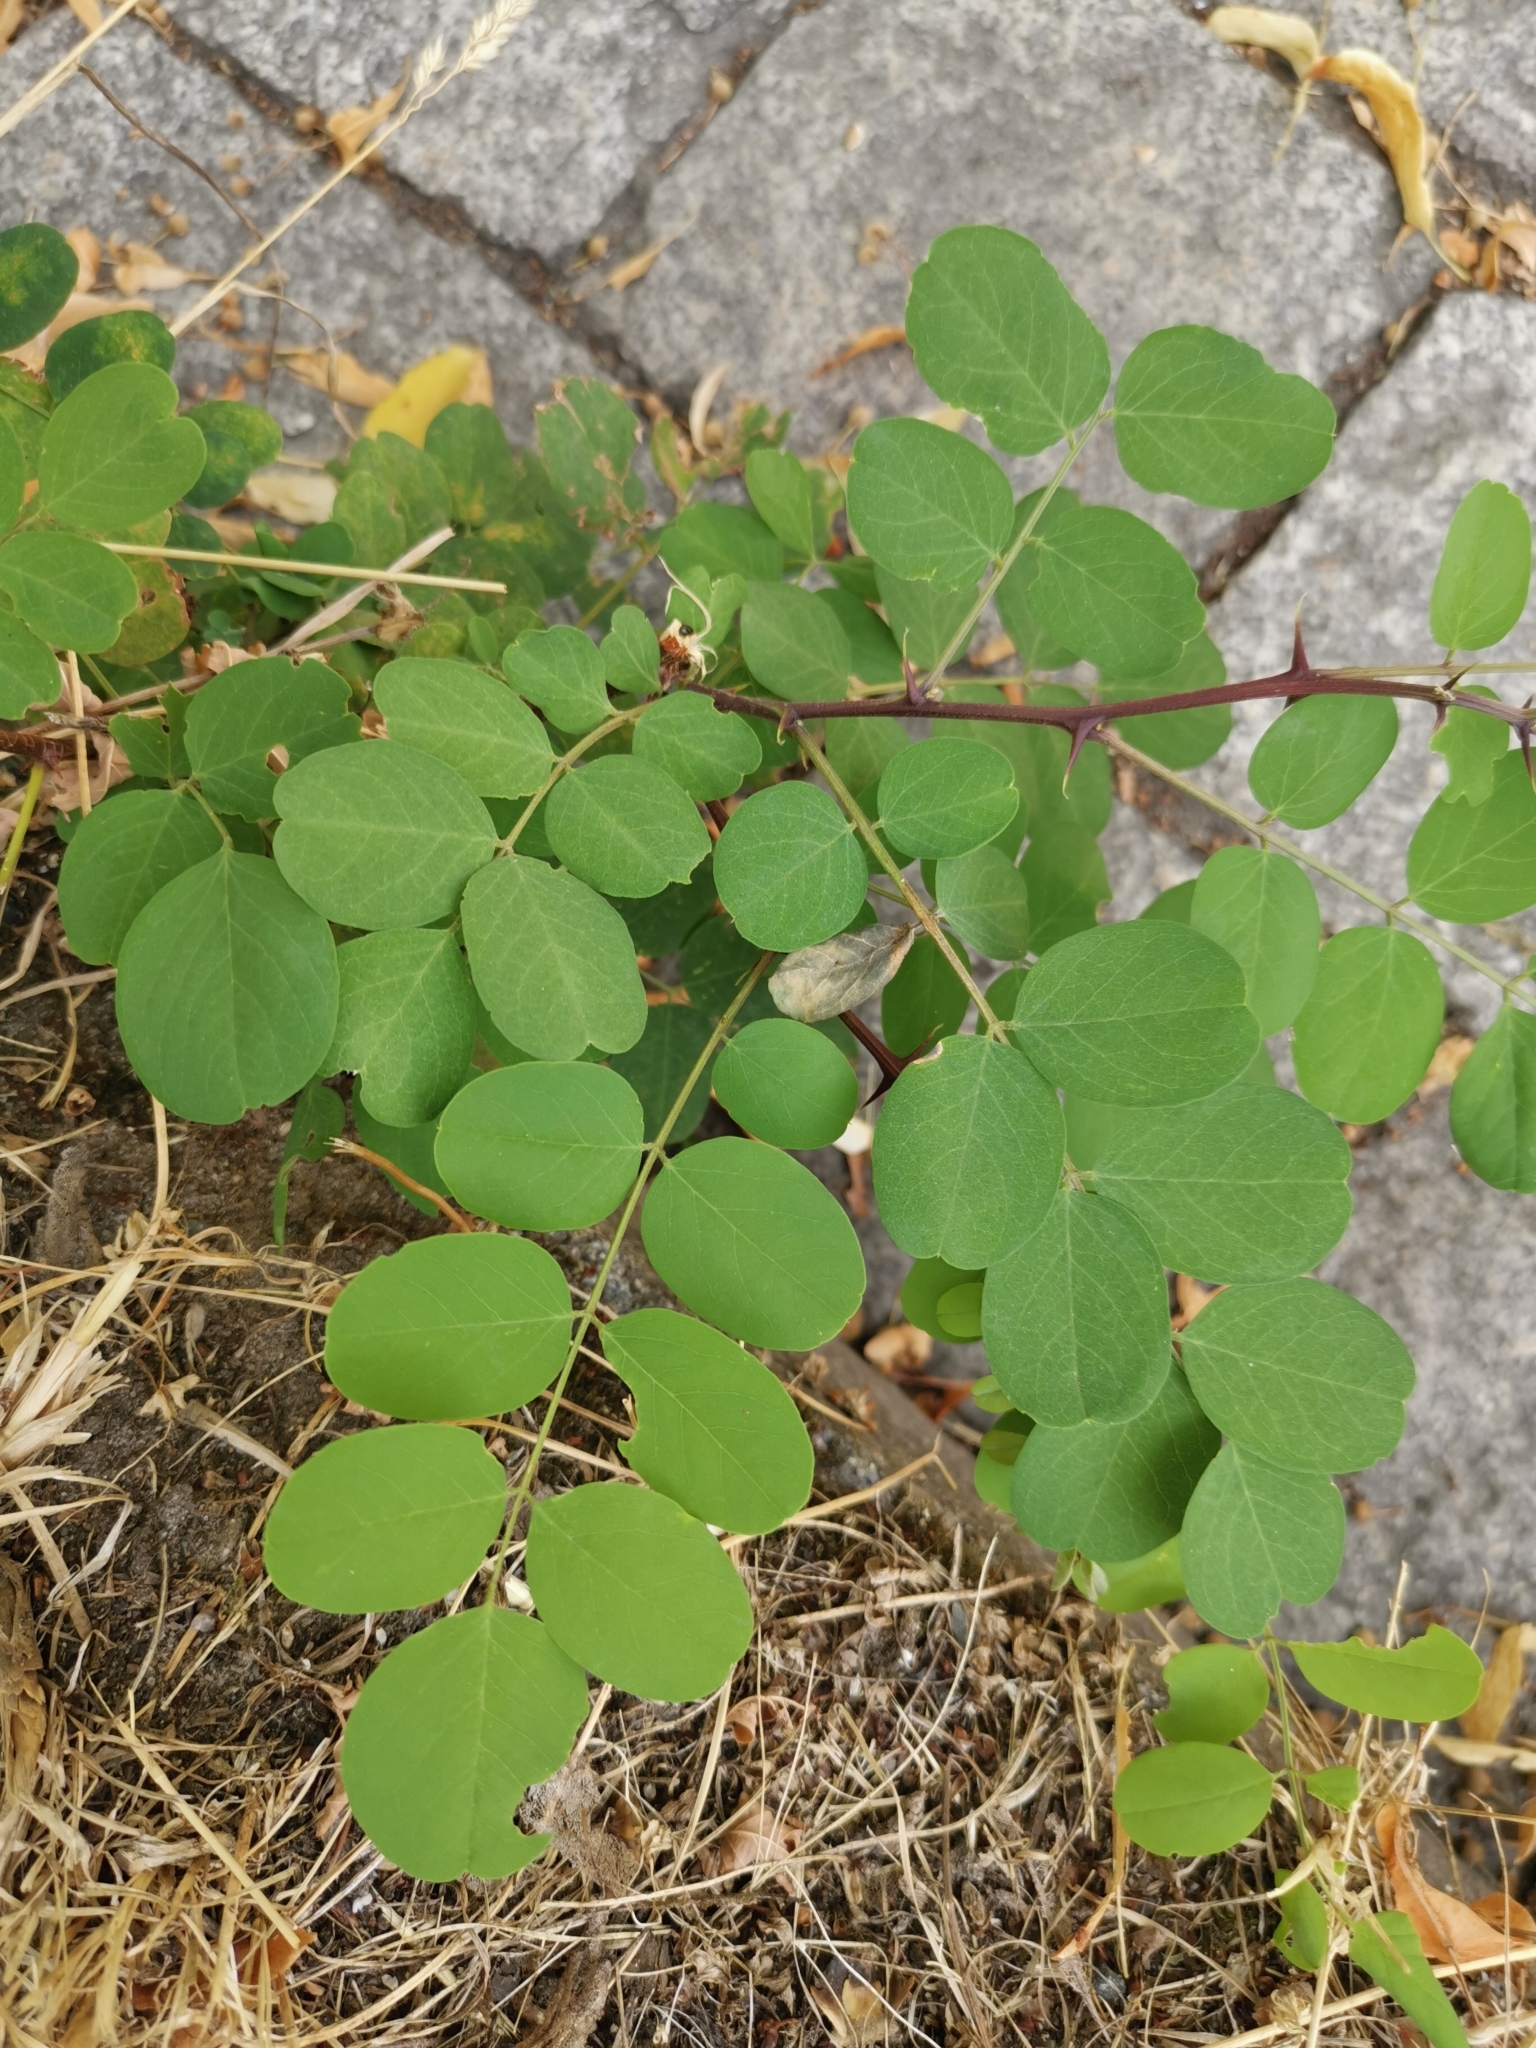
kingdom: Plantae
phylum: Tracheophyta
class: Magnoliopsida
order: Fabales
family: Fabaceae
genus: Robinia
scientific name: Robinia pseudoacacia
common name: Black locust
